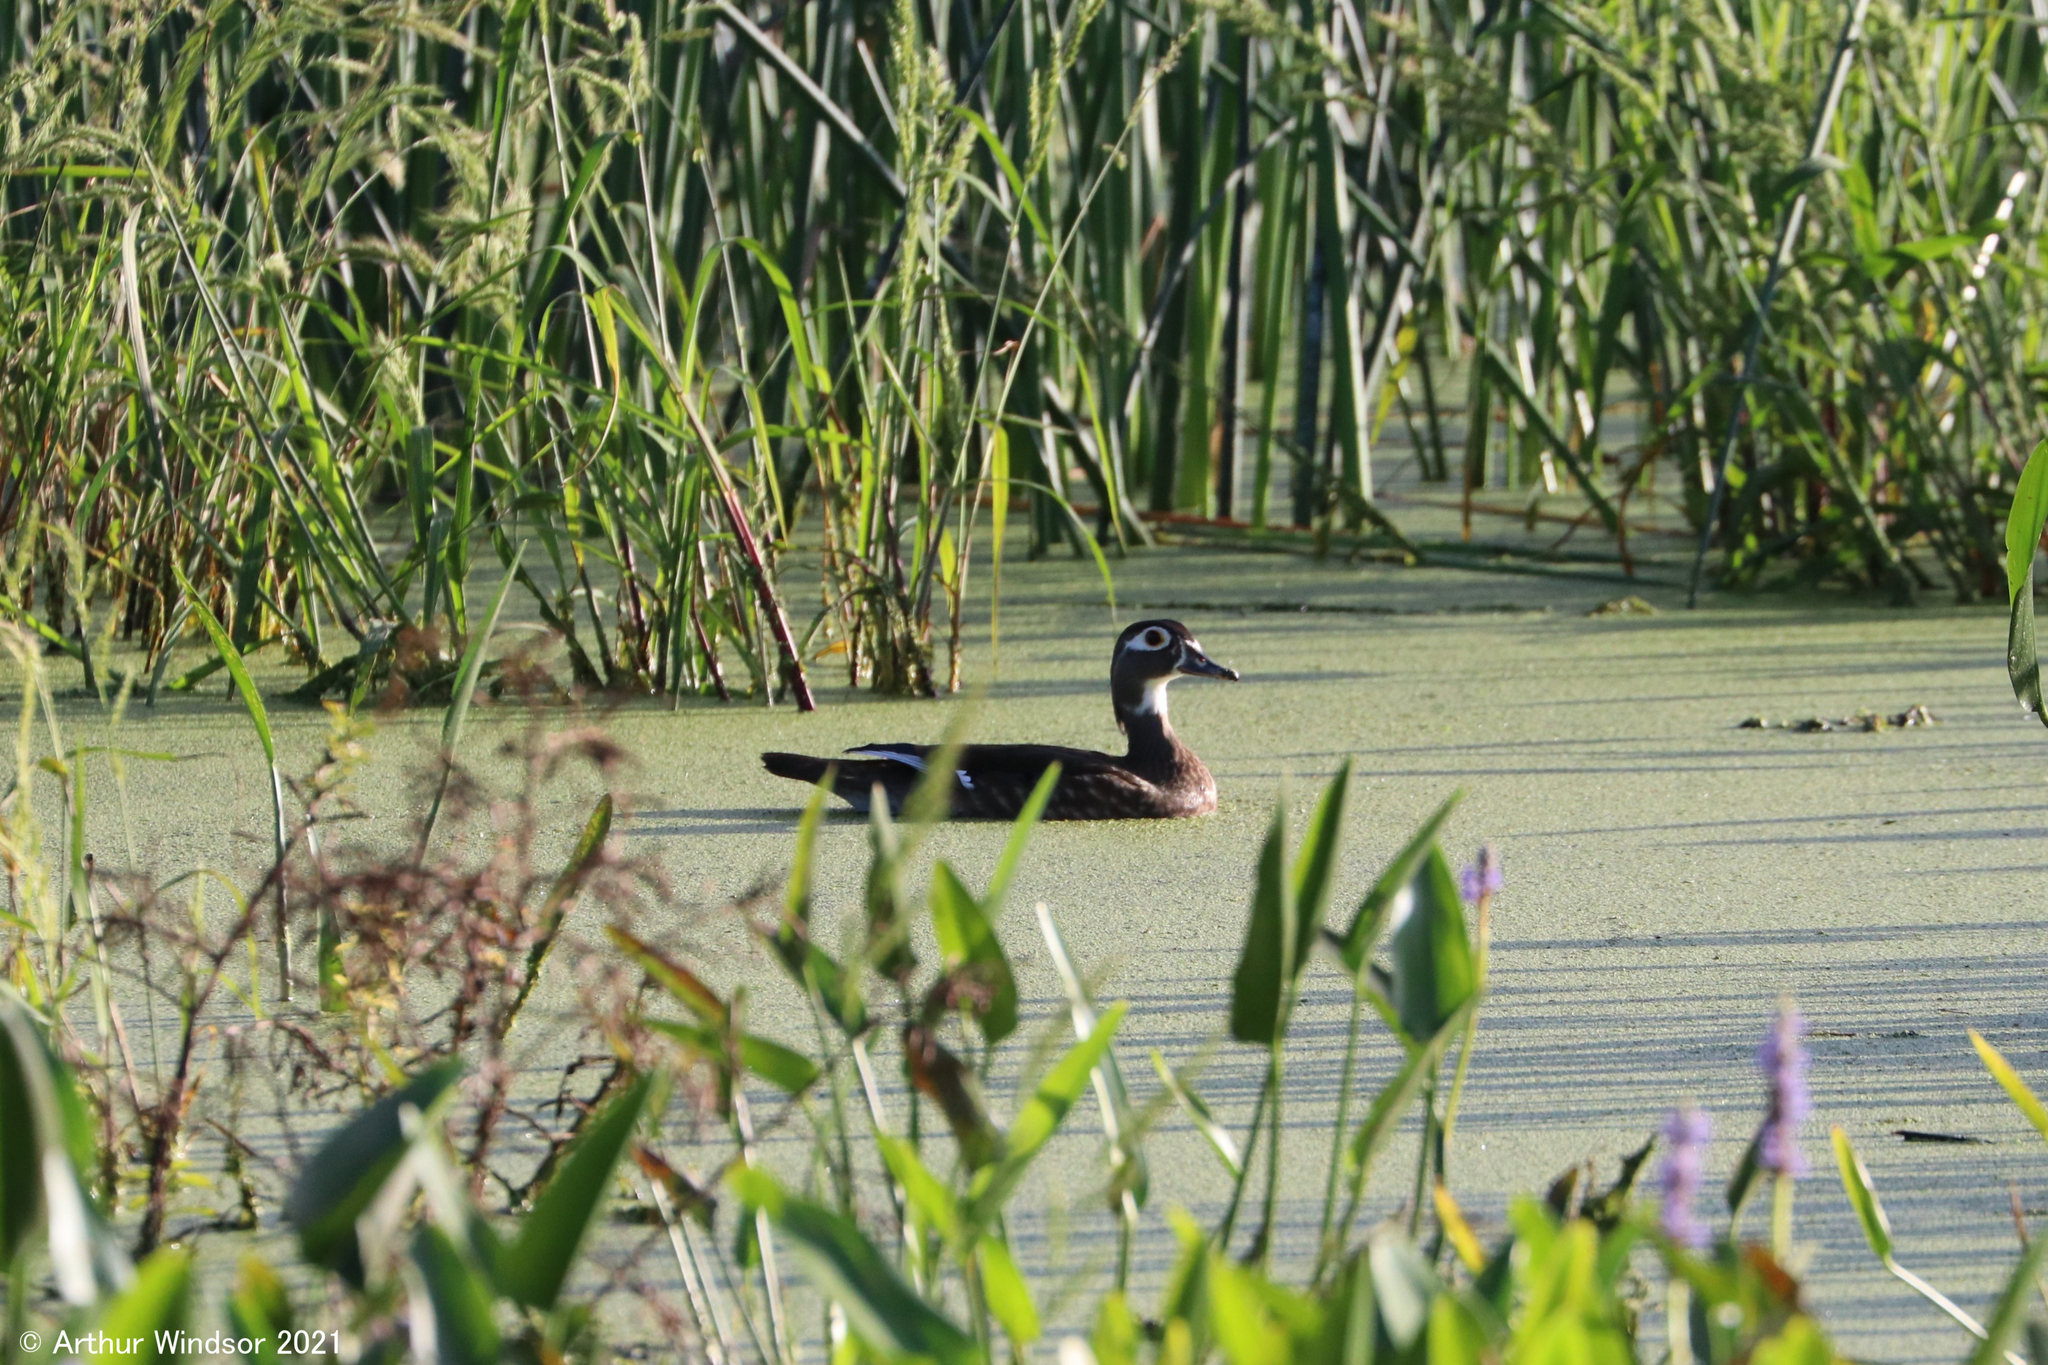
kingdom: Animalia
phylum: Chordata
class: Aves
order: Anseriformes
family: Anatidae
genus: Aix
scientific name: Aix sponsa
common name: Wood duck
